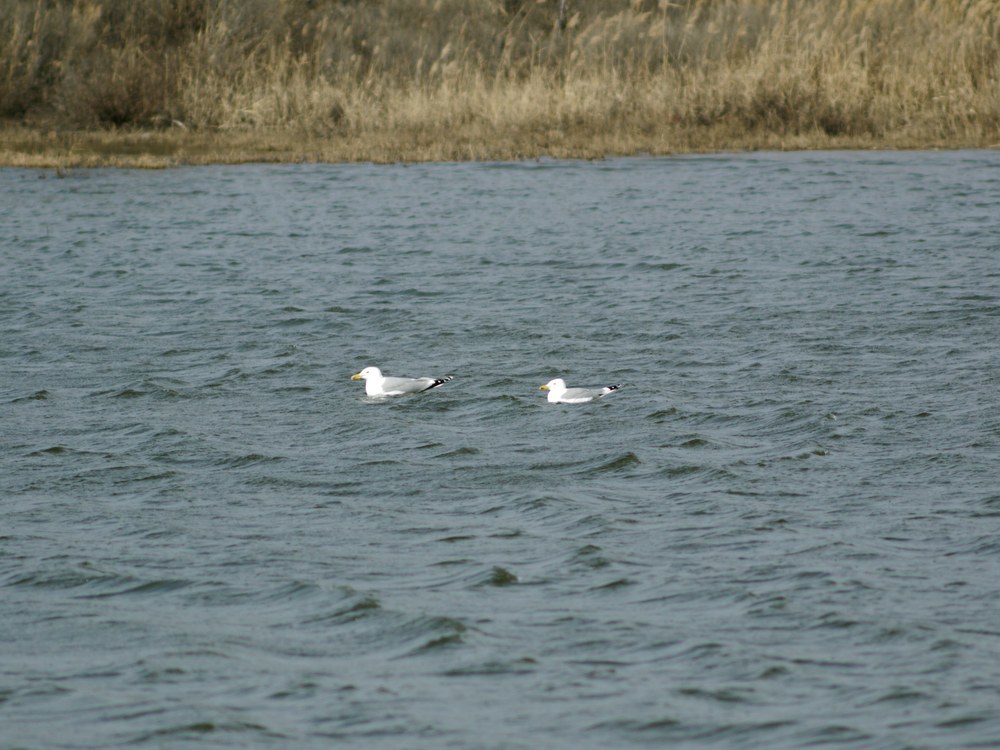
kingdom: Animalia
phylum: Chordata
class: Aves
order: Charadriiformes
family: Laridae
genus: Larus
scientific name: Larus cachinnans
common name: Caspian gull
